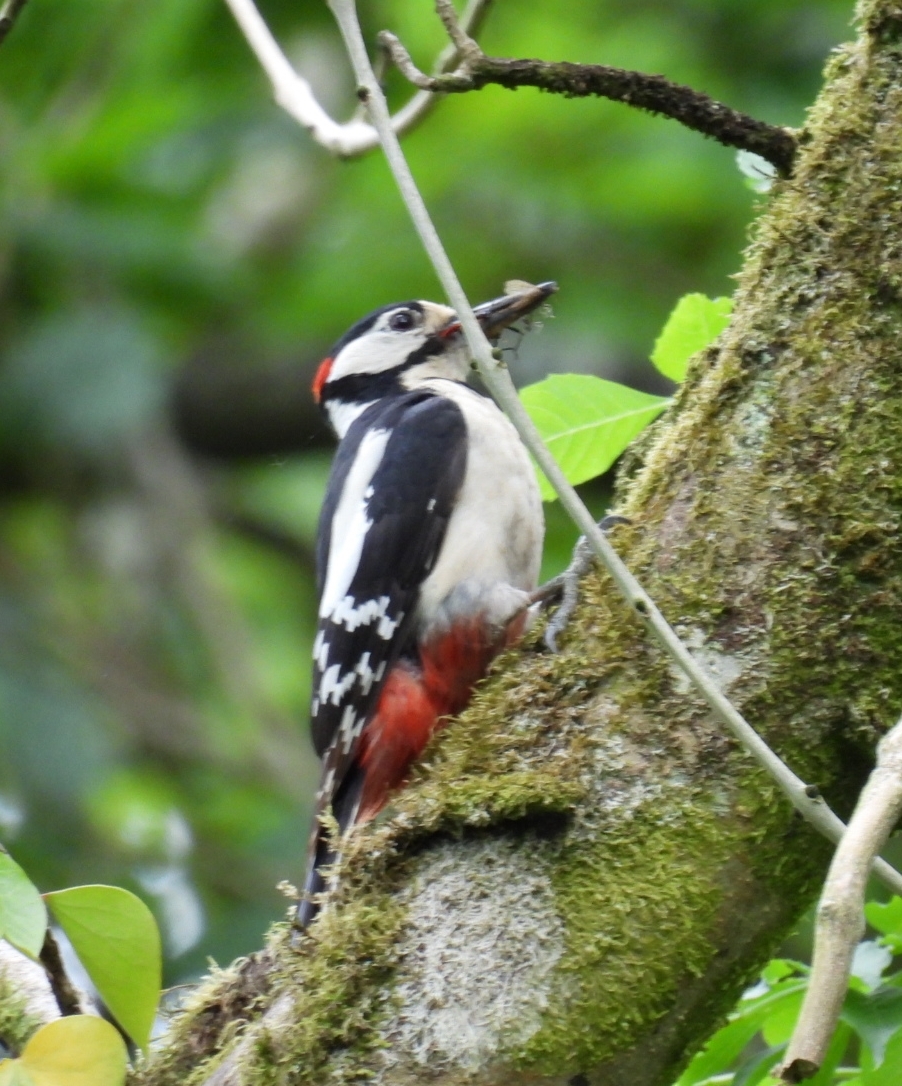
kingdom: Animalia
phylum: Chordata
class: Aves
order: Piciformes
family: Picidae
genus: Dendrocopos
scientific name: Dendrocopos major
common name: Great spotted woodpecker
